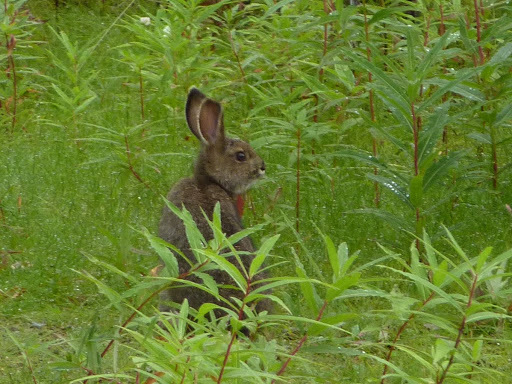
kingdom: Animalia
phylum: Chordata
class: Mammalia
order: Lagomorpha
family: Leporidae
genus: Lepus
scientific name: Lepus americanus
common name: Snowshoe hare
